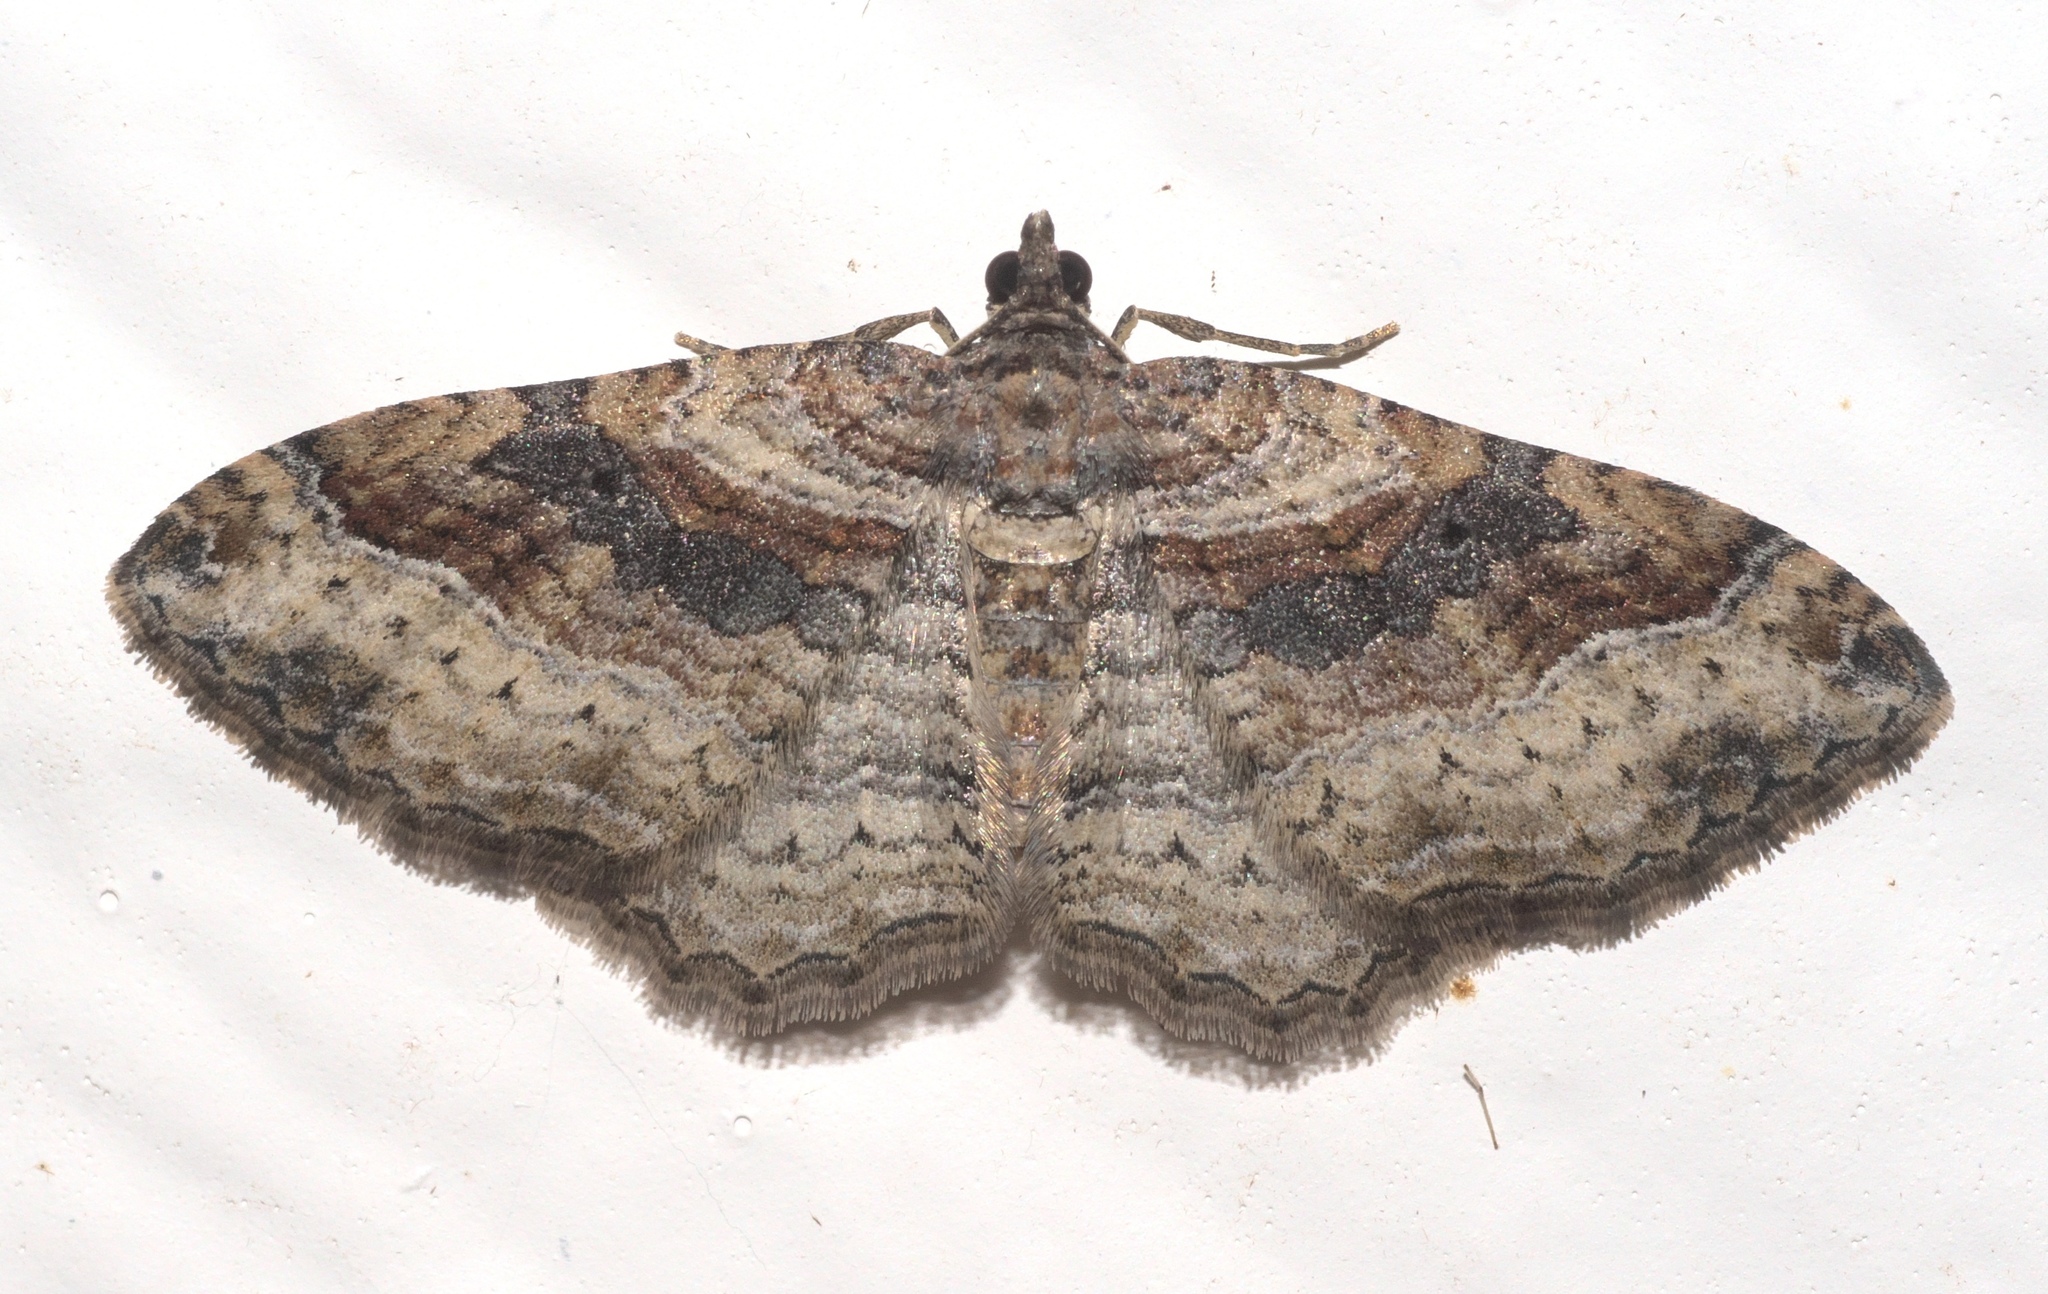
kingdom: Animalia
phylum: Arthropoda
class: Insecta
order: Lepidoptera
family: Geometridae
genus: Costaconvexa
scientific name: Costaconvexa centrostrigaria
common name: Bent-line carpet
